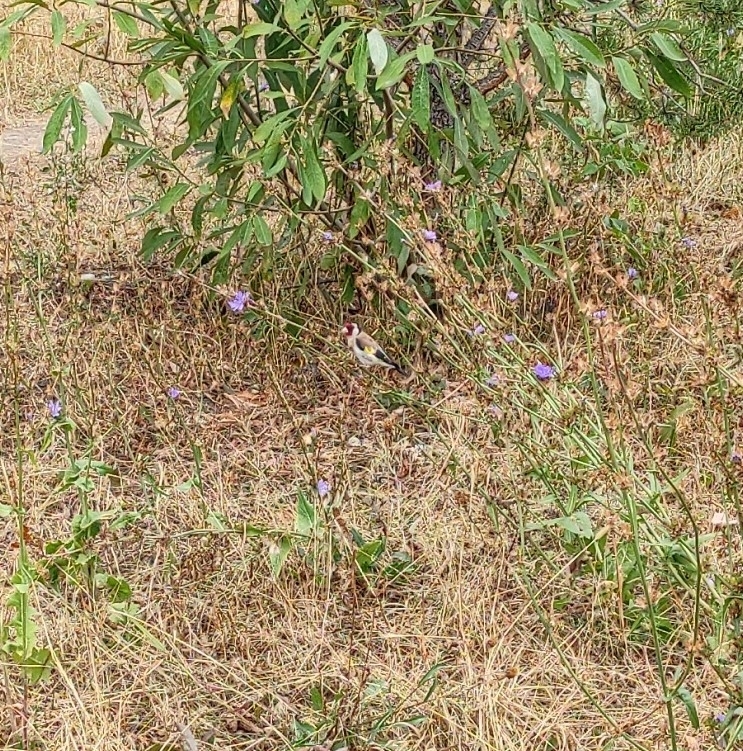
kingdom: Animalia
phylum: Chordata
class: Aves
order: Passeriformes
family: Fringillidae
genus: Carduelis
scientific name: Carduelis carduelis
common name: European goldfinch
